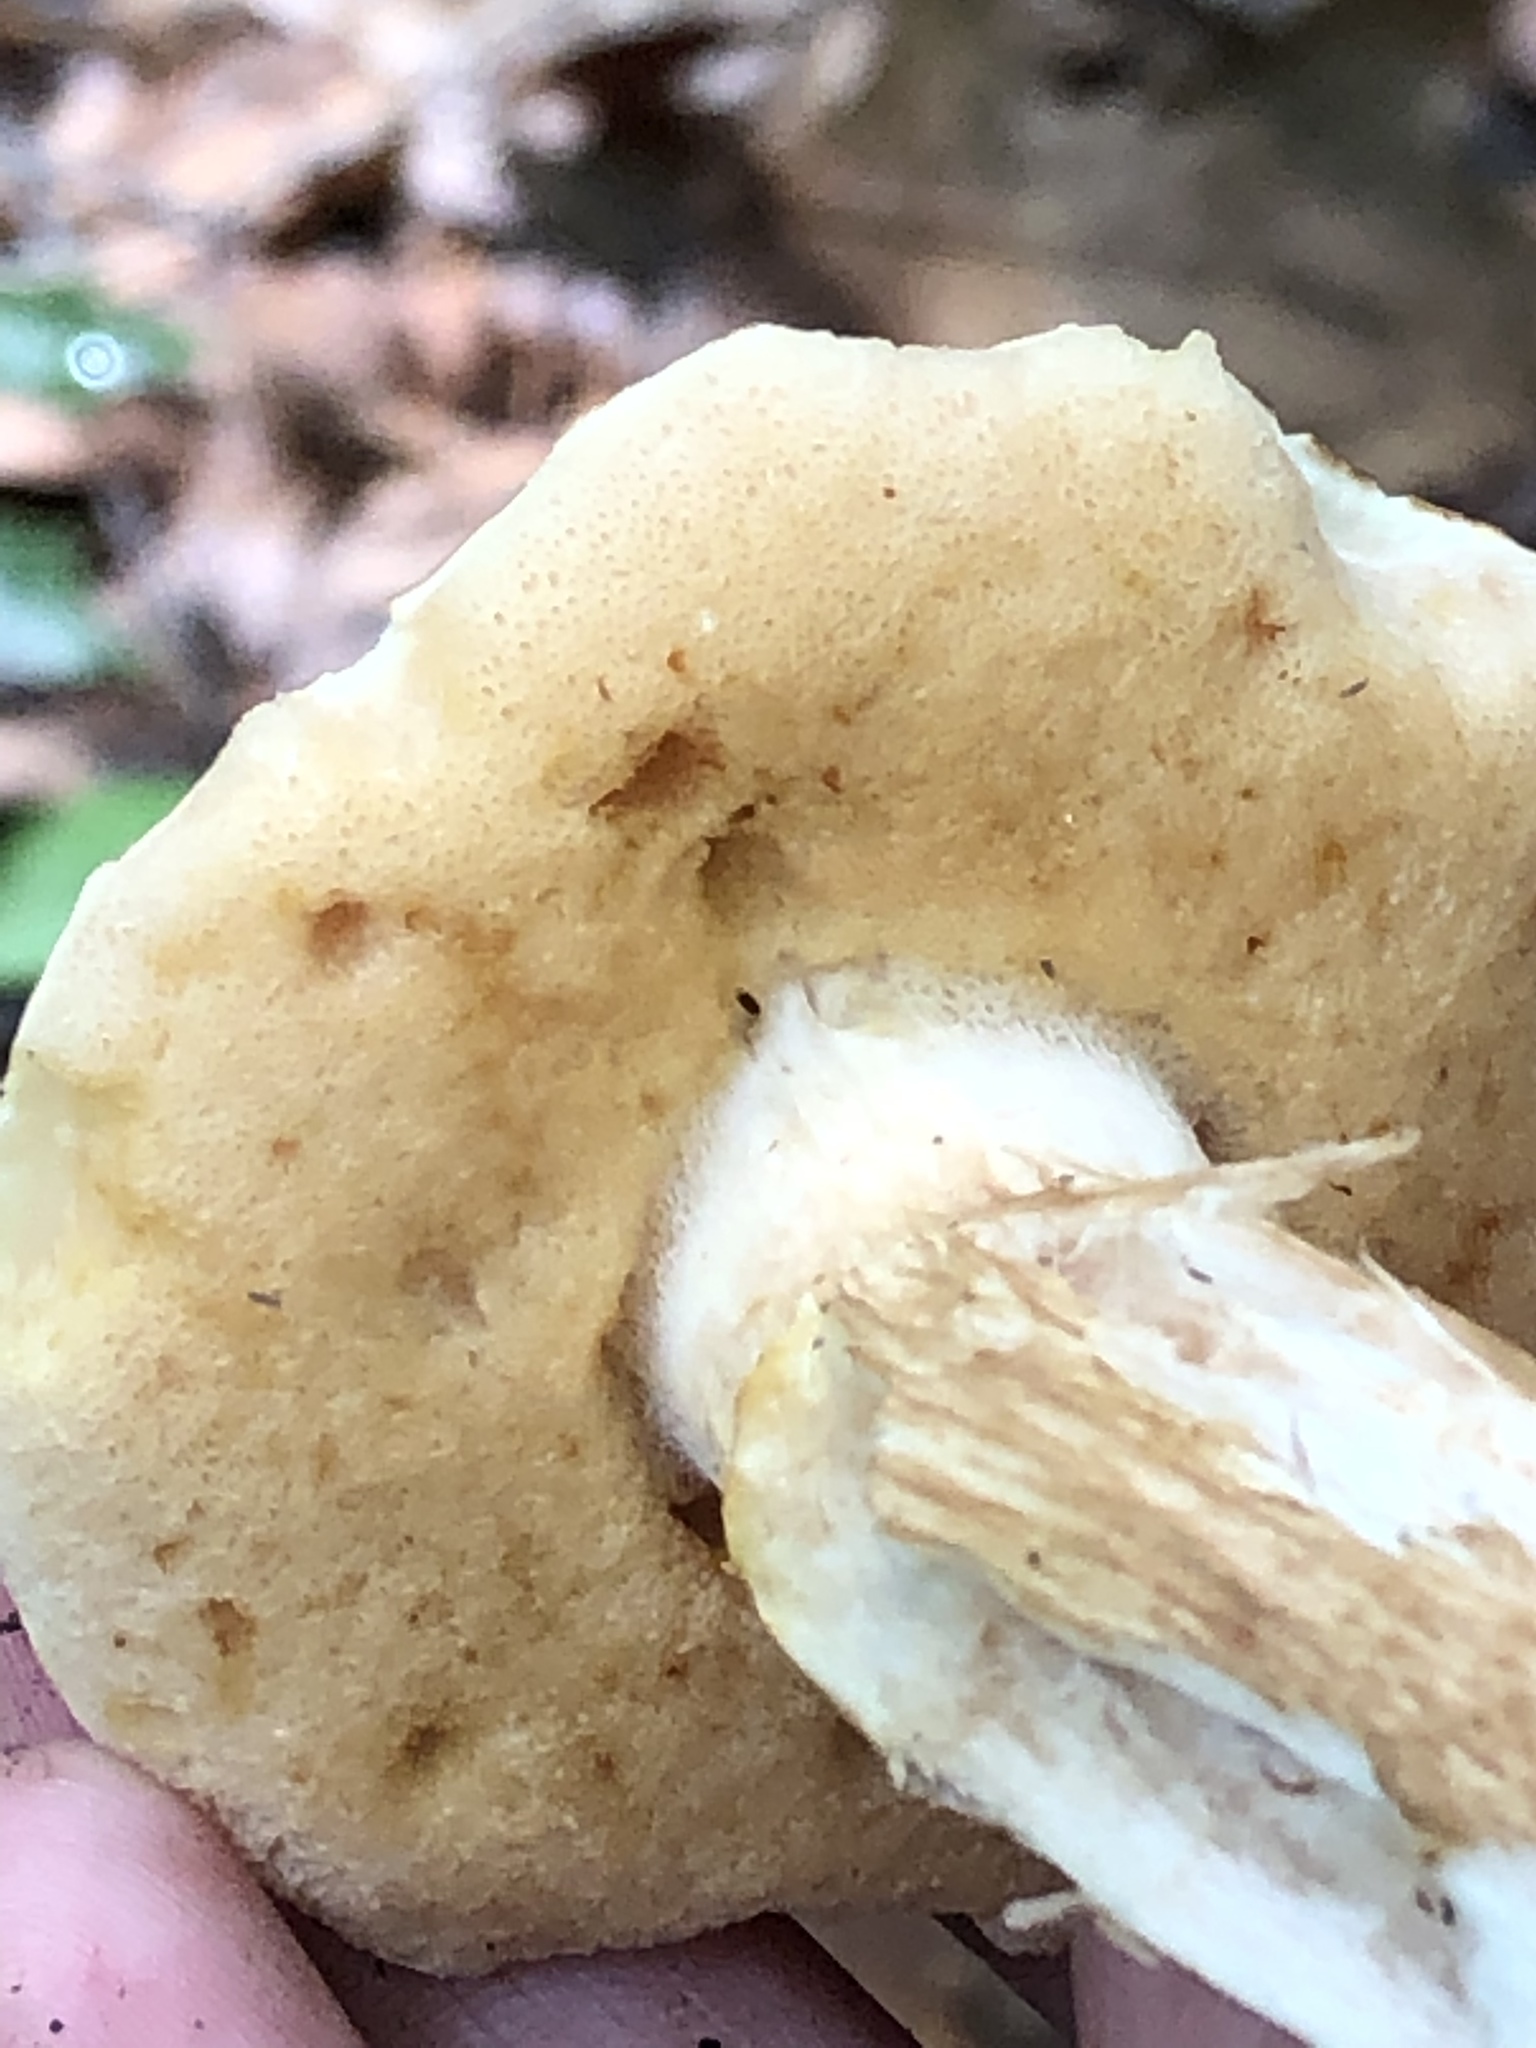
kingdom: Fungi
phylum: Basidiomycota
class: Agaricomycetes
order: Boletales
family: Boletaceae
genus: Xanthoconium
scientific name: Xanthoconium affine
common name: Spotted bolete
